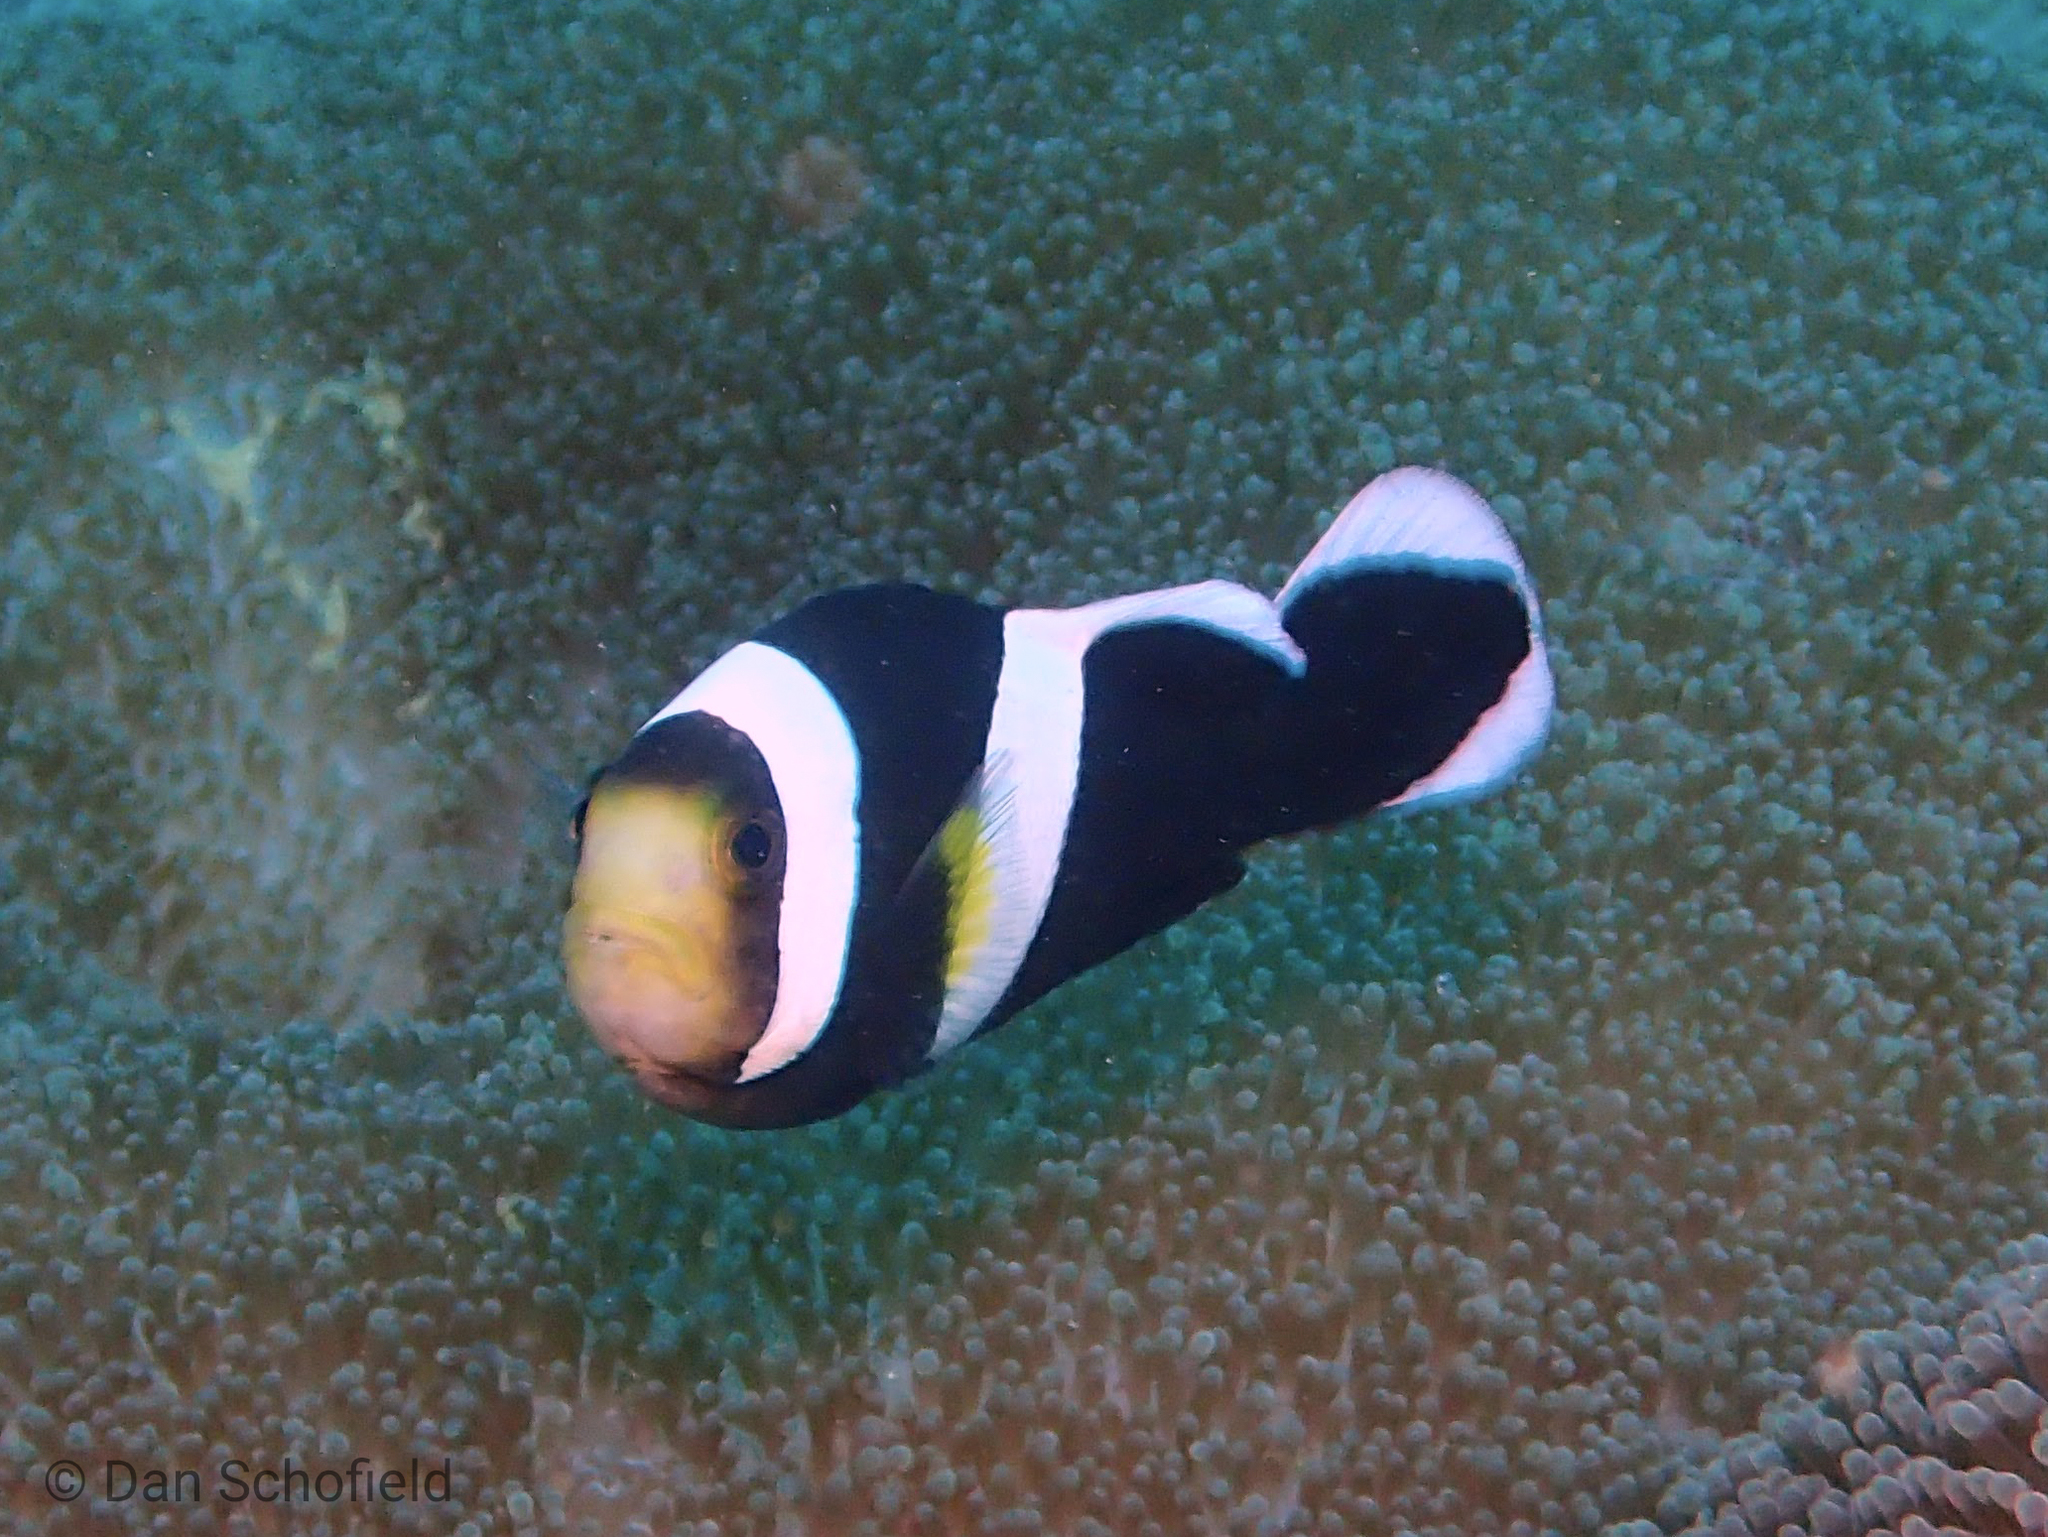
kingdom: Animalia
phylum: Chordata
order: Perciformes
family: Pomacentridae
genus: Amphiprion
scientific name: Amphiprion polymnus
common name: Saddleback anemonefish
